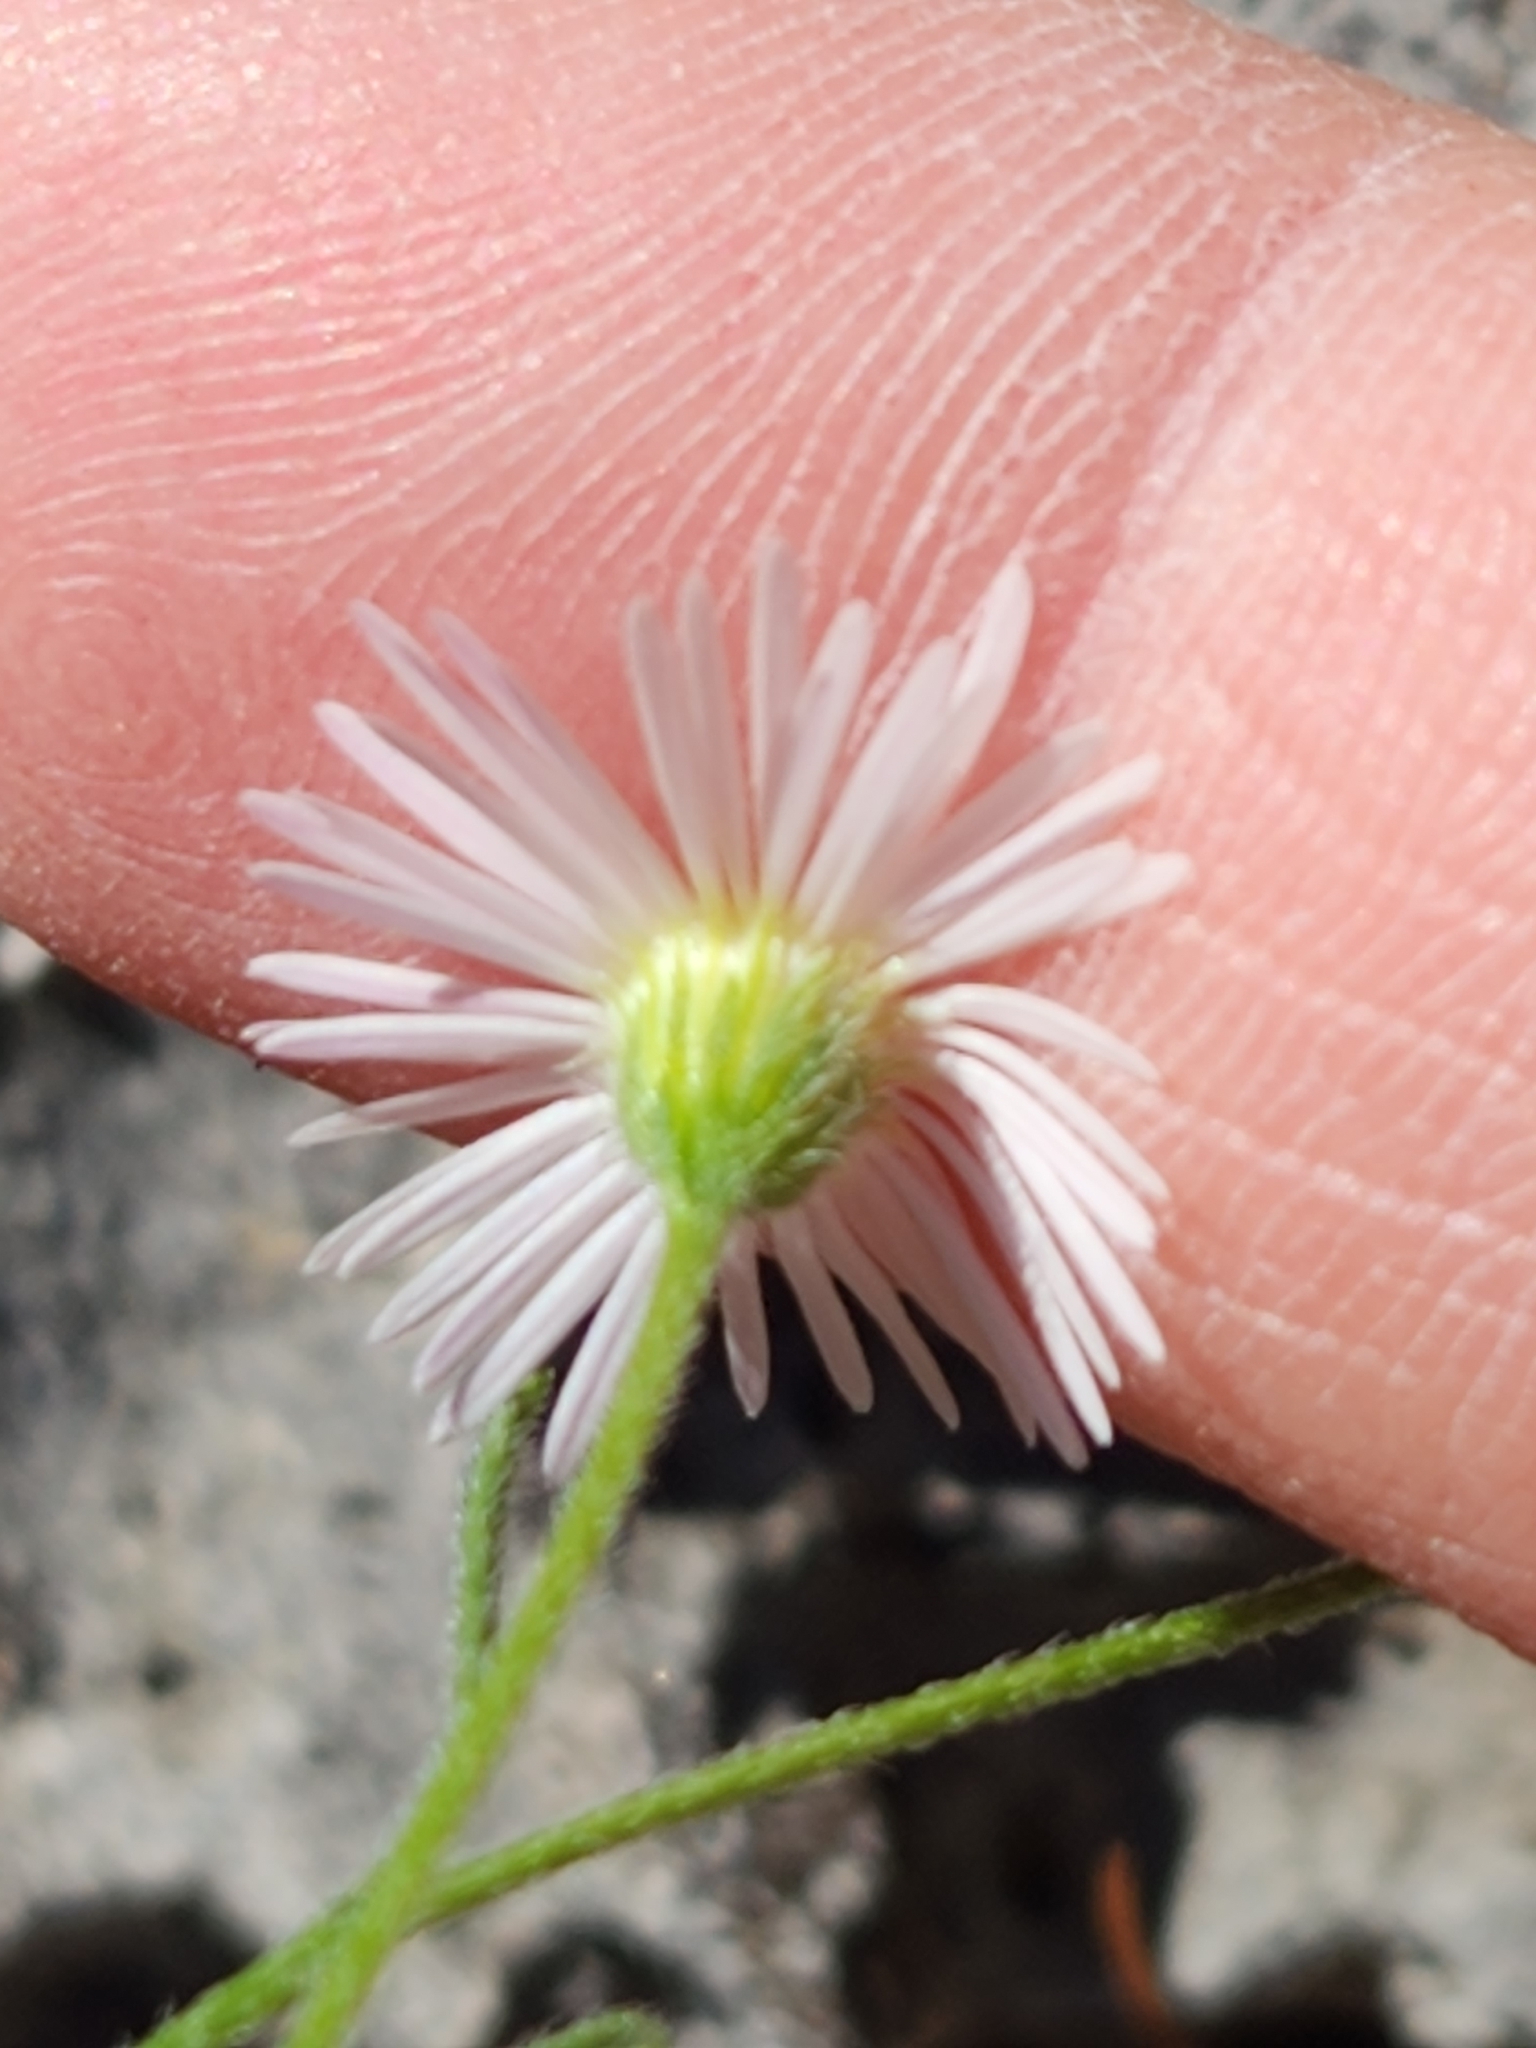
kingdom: Plantae
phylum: Tracheophyta
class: Magnoliopsida
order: Asterales
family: Asteraceae
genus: Erigeron
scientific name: Erigeron modestus
